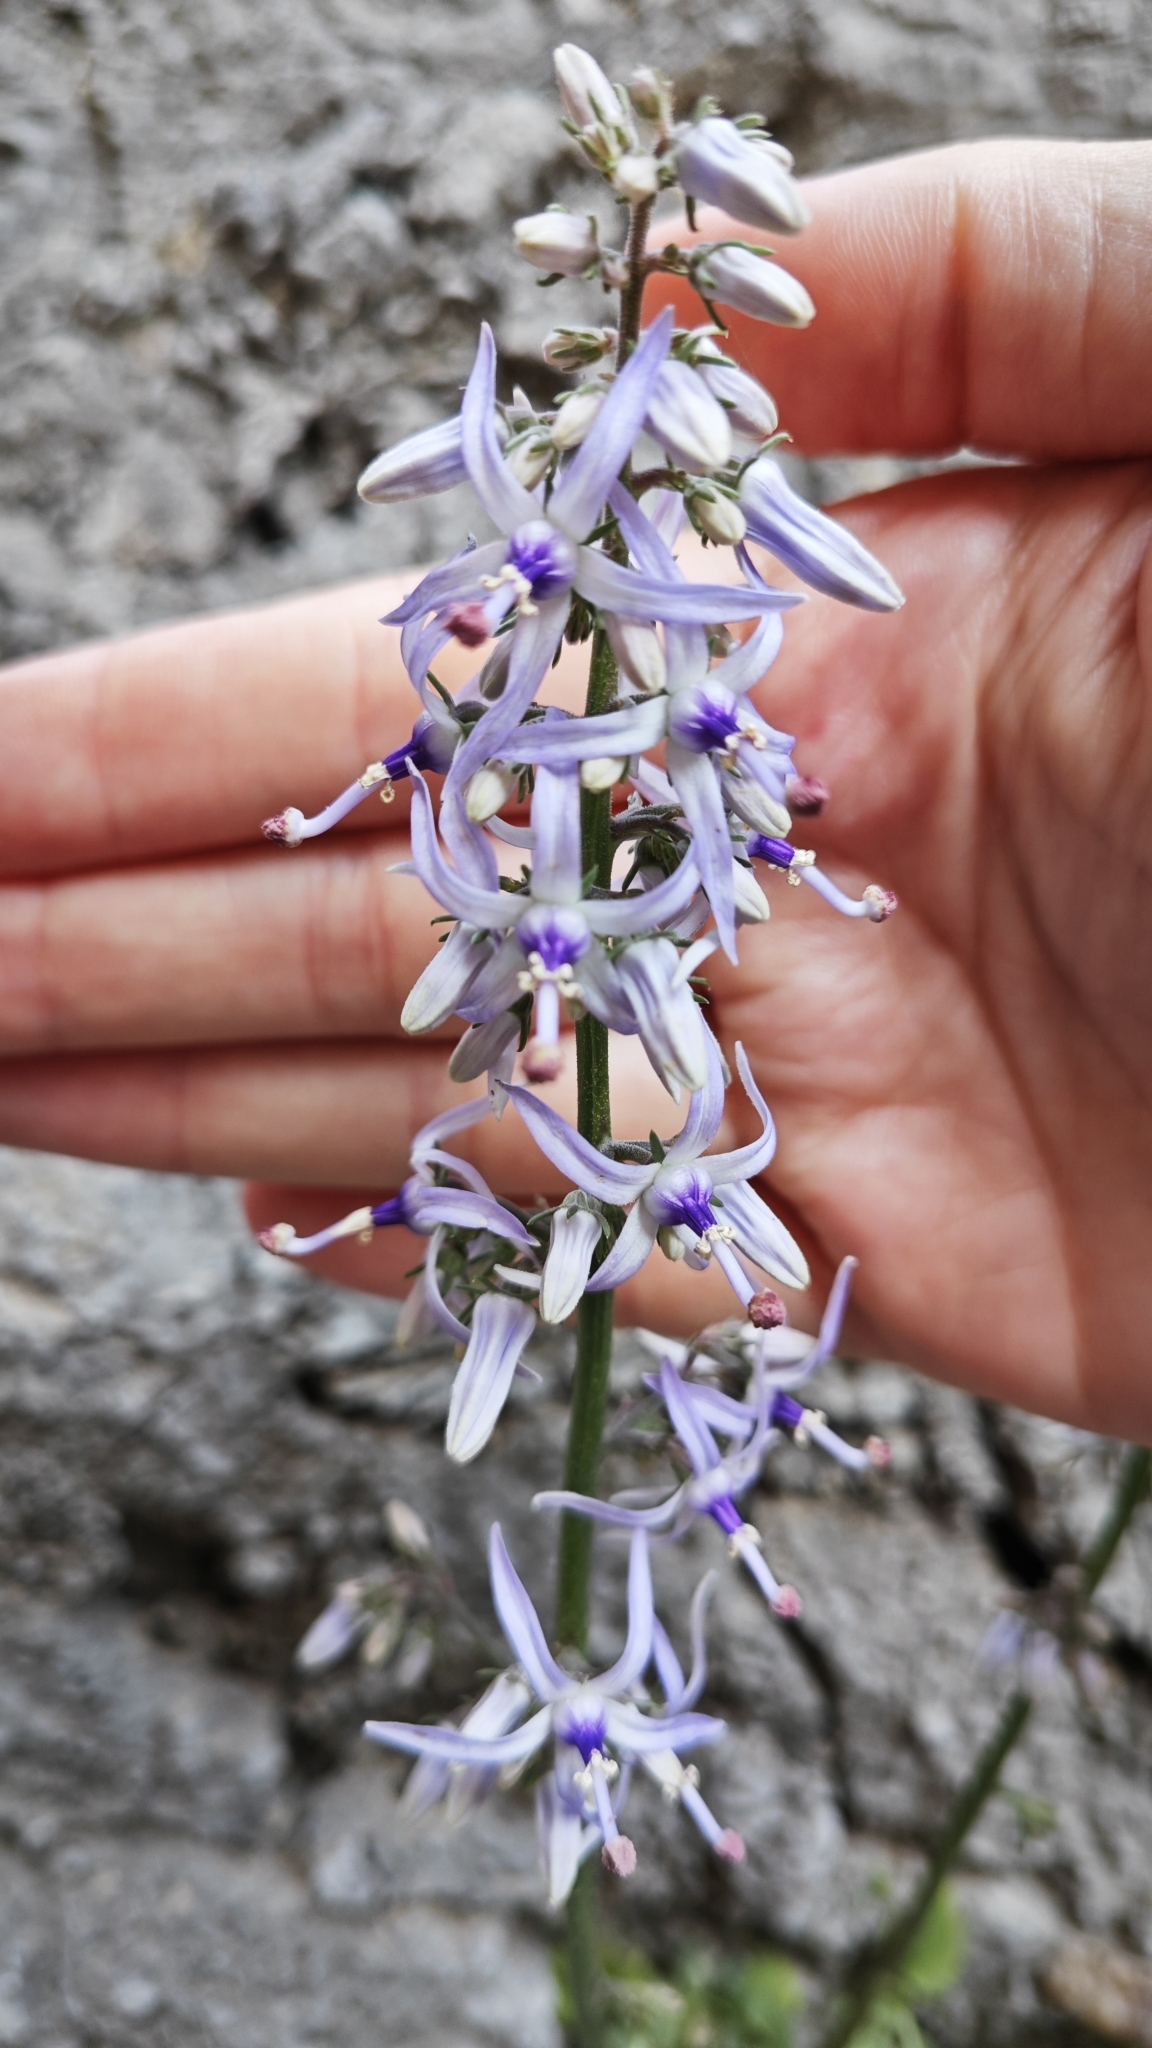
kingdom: Plantae
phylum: Tracheophyta
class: Magnoliopsida
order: Asterales
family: Campanulaceae
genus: Petromarula
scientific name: Petromarula pinnata
